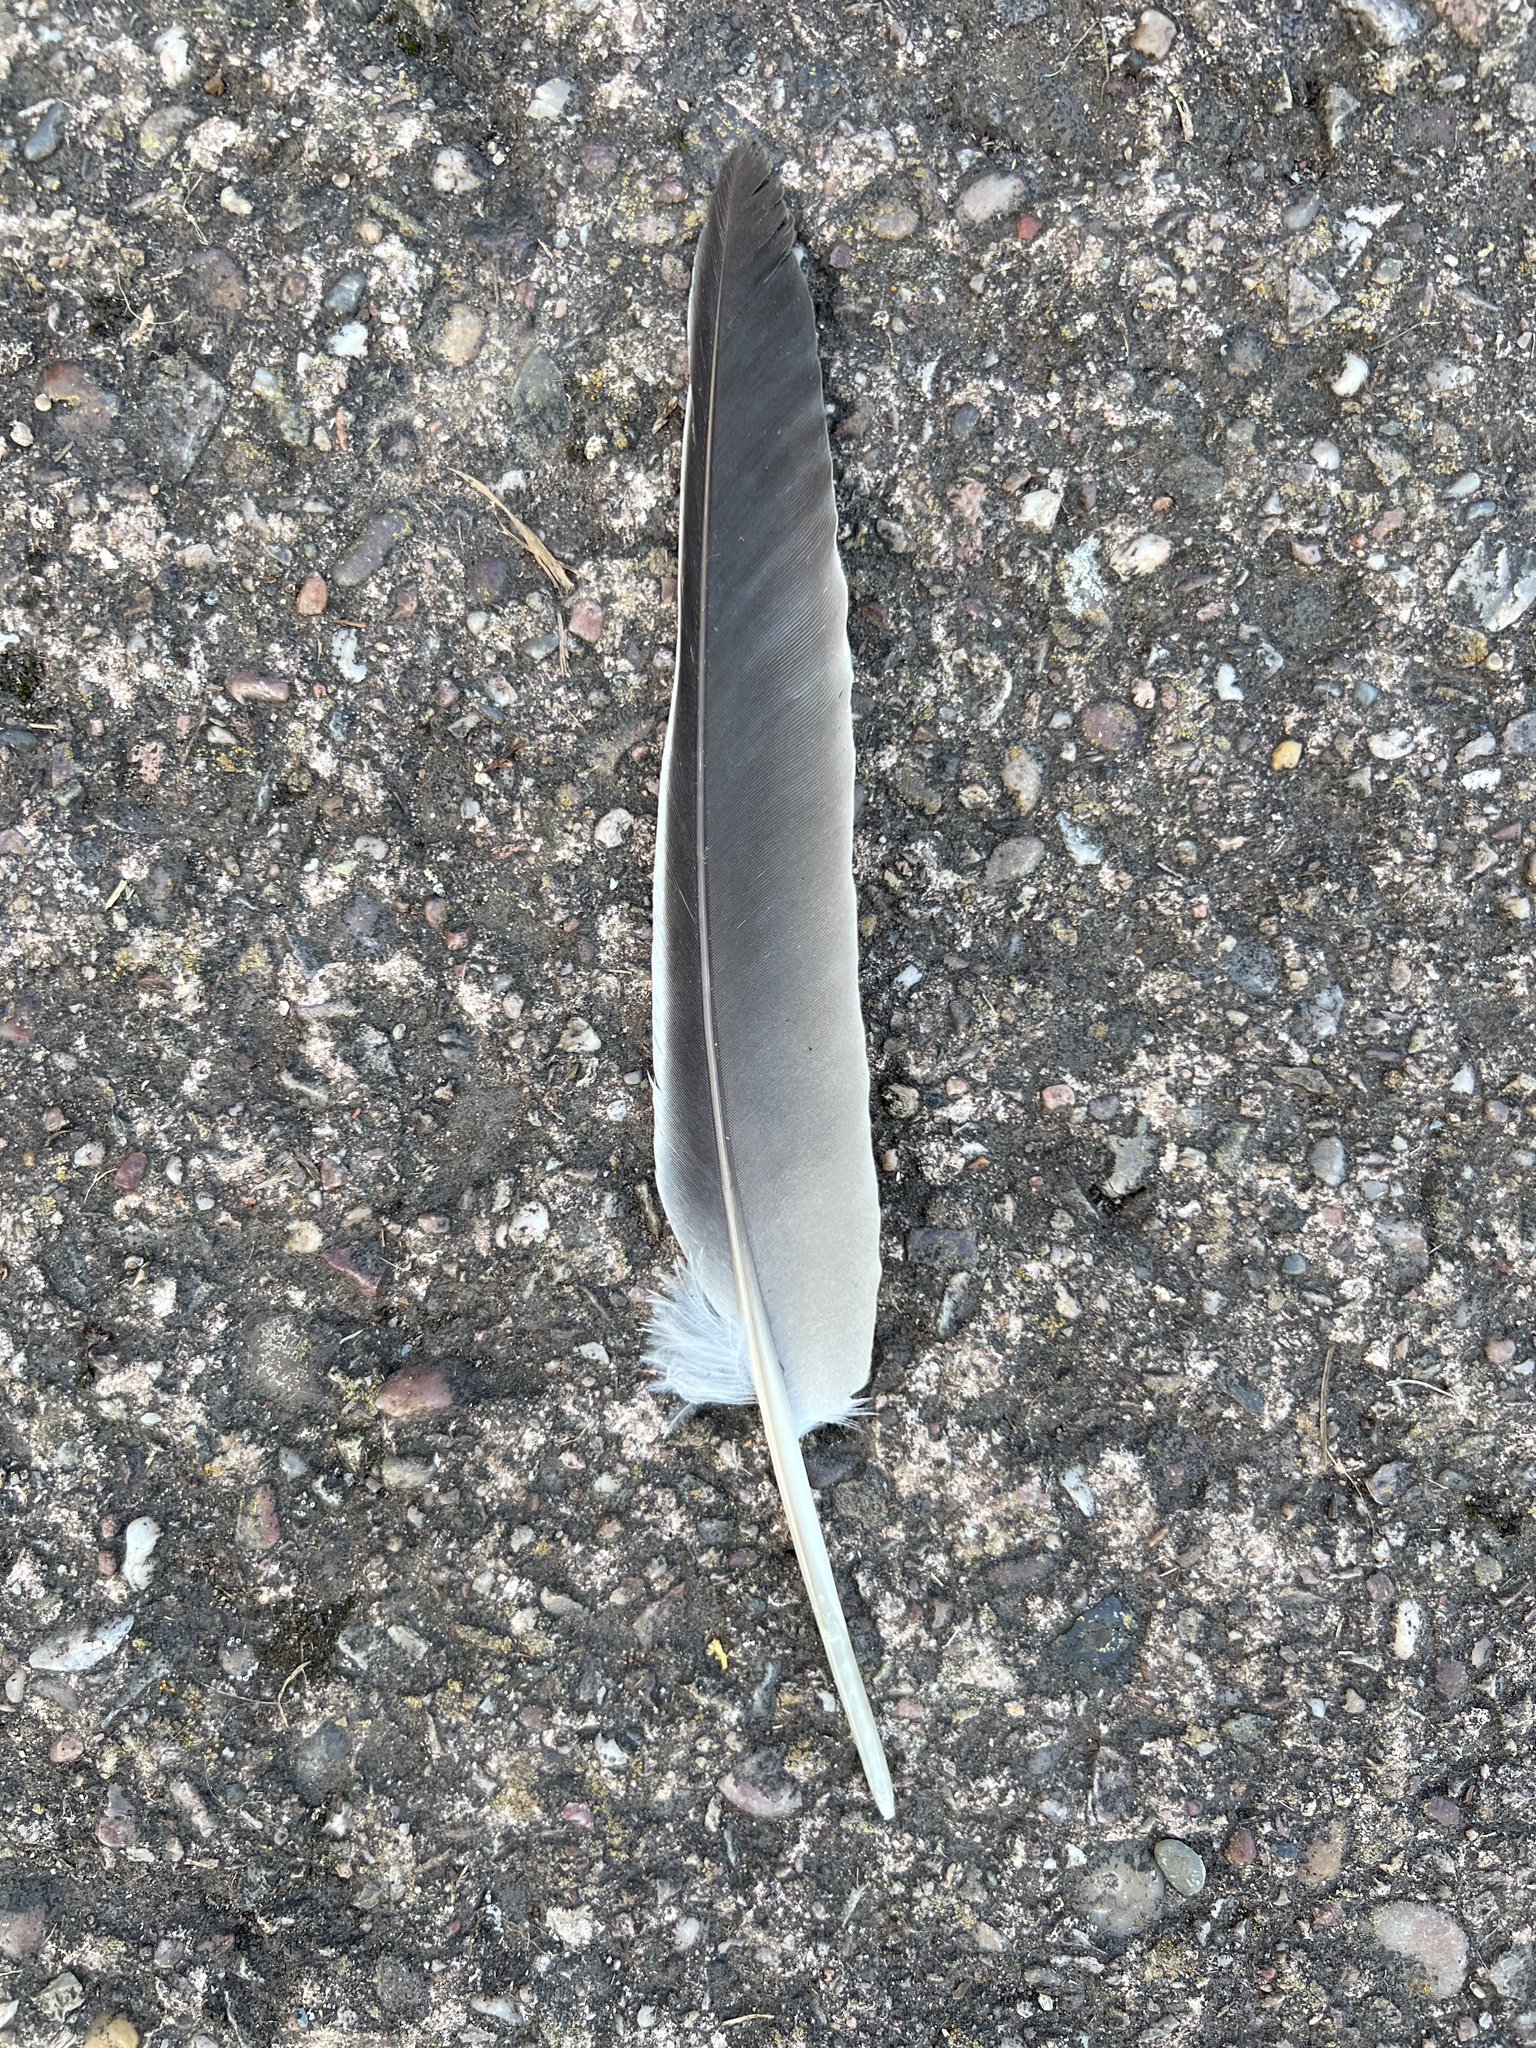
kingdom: Animalia
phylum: Chordata
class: Aves
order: Columbiformes
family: Columbidae
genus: Columba
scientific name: Columba palumbus
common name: Common wood pigeon
